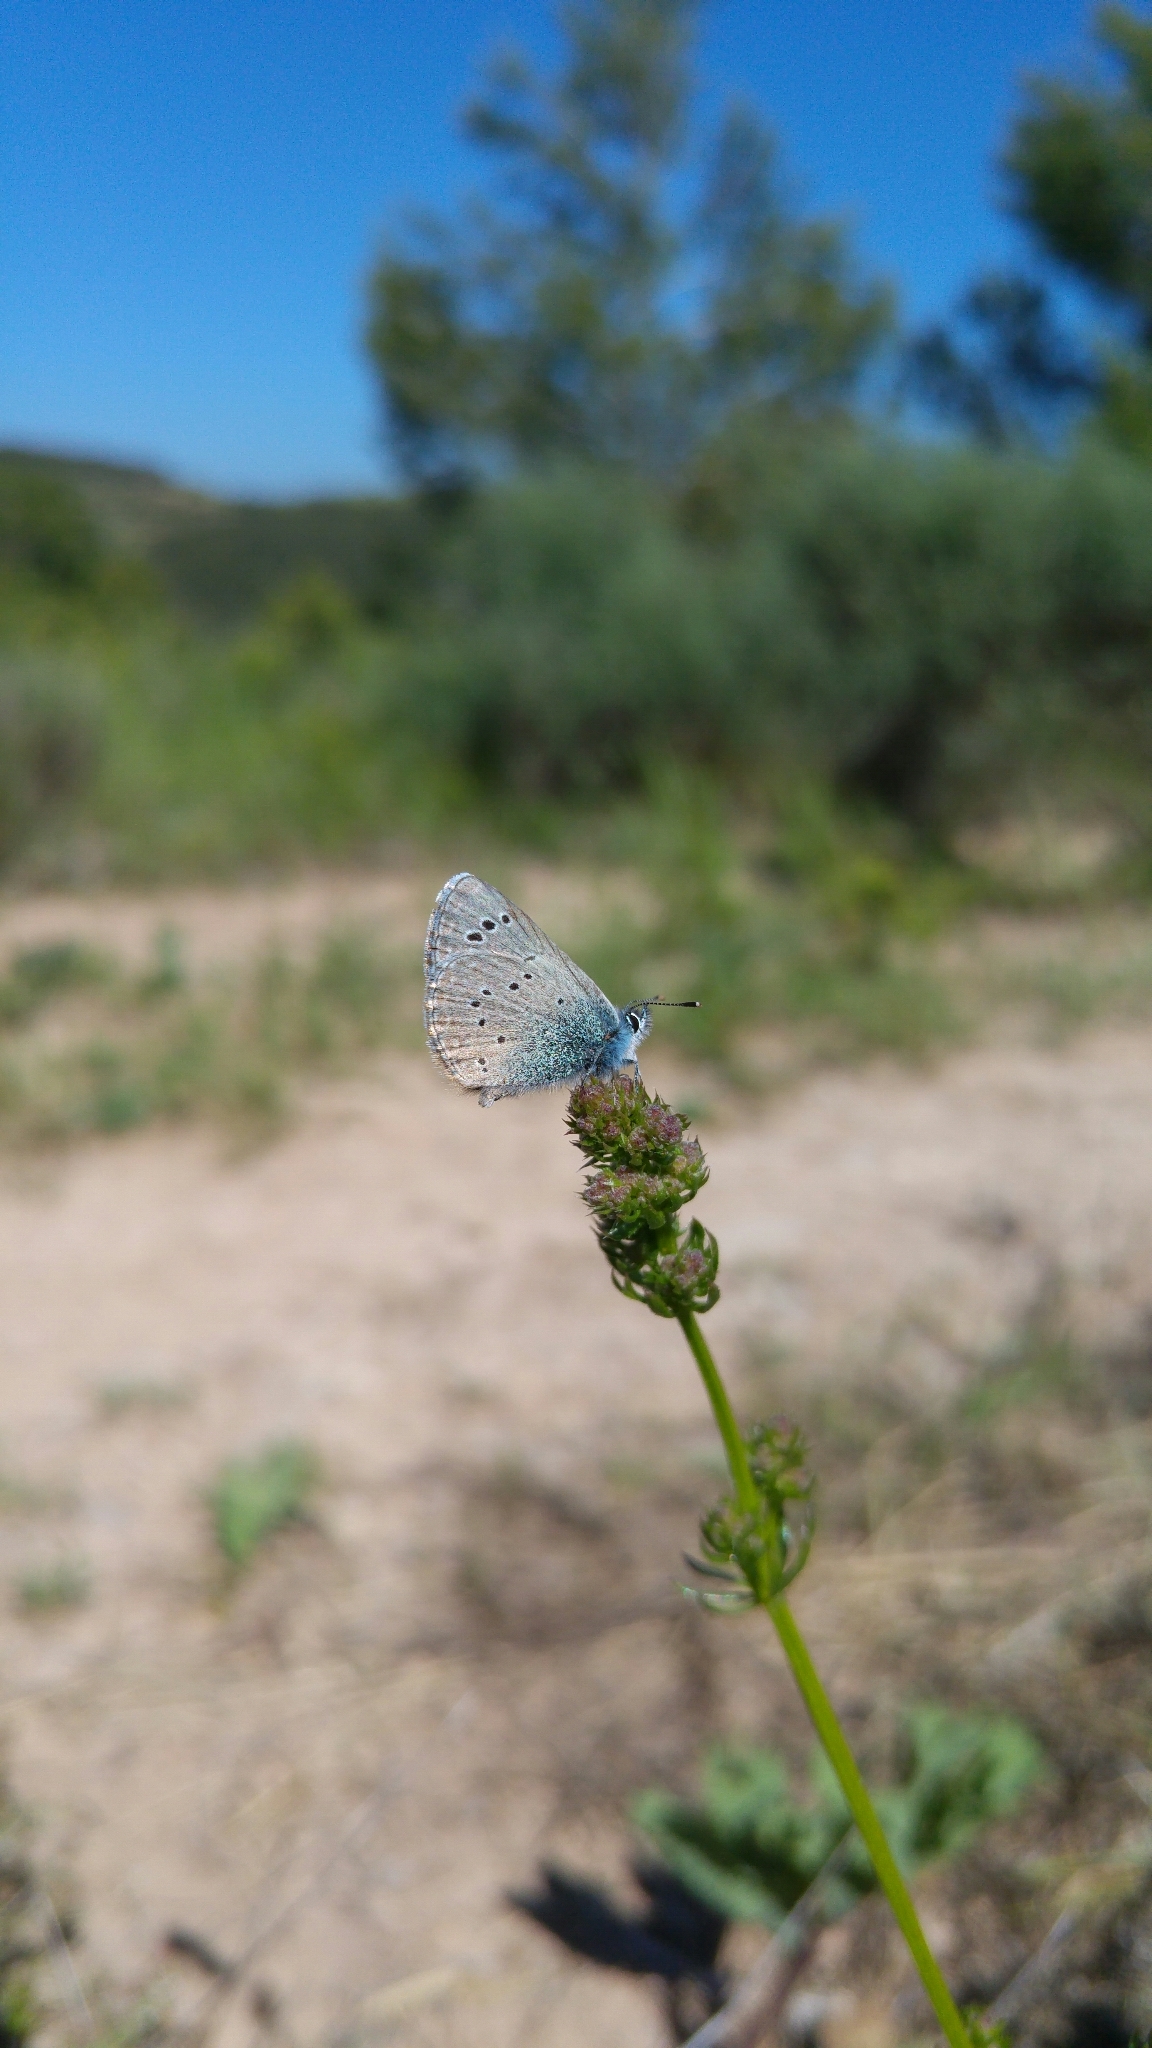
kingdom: Animalia
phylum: Arthropoda
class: Insecta
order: Lepidoptera
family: Lycaenidae
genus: Glaucopsyche
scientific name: Glaucopsyche melanops
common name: Black-eyed blue
